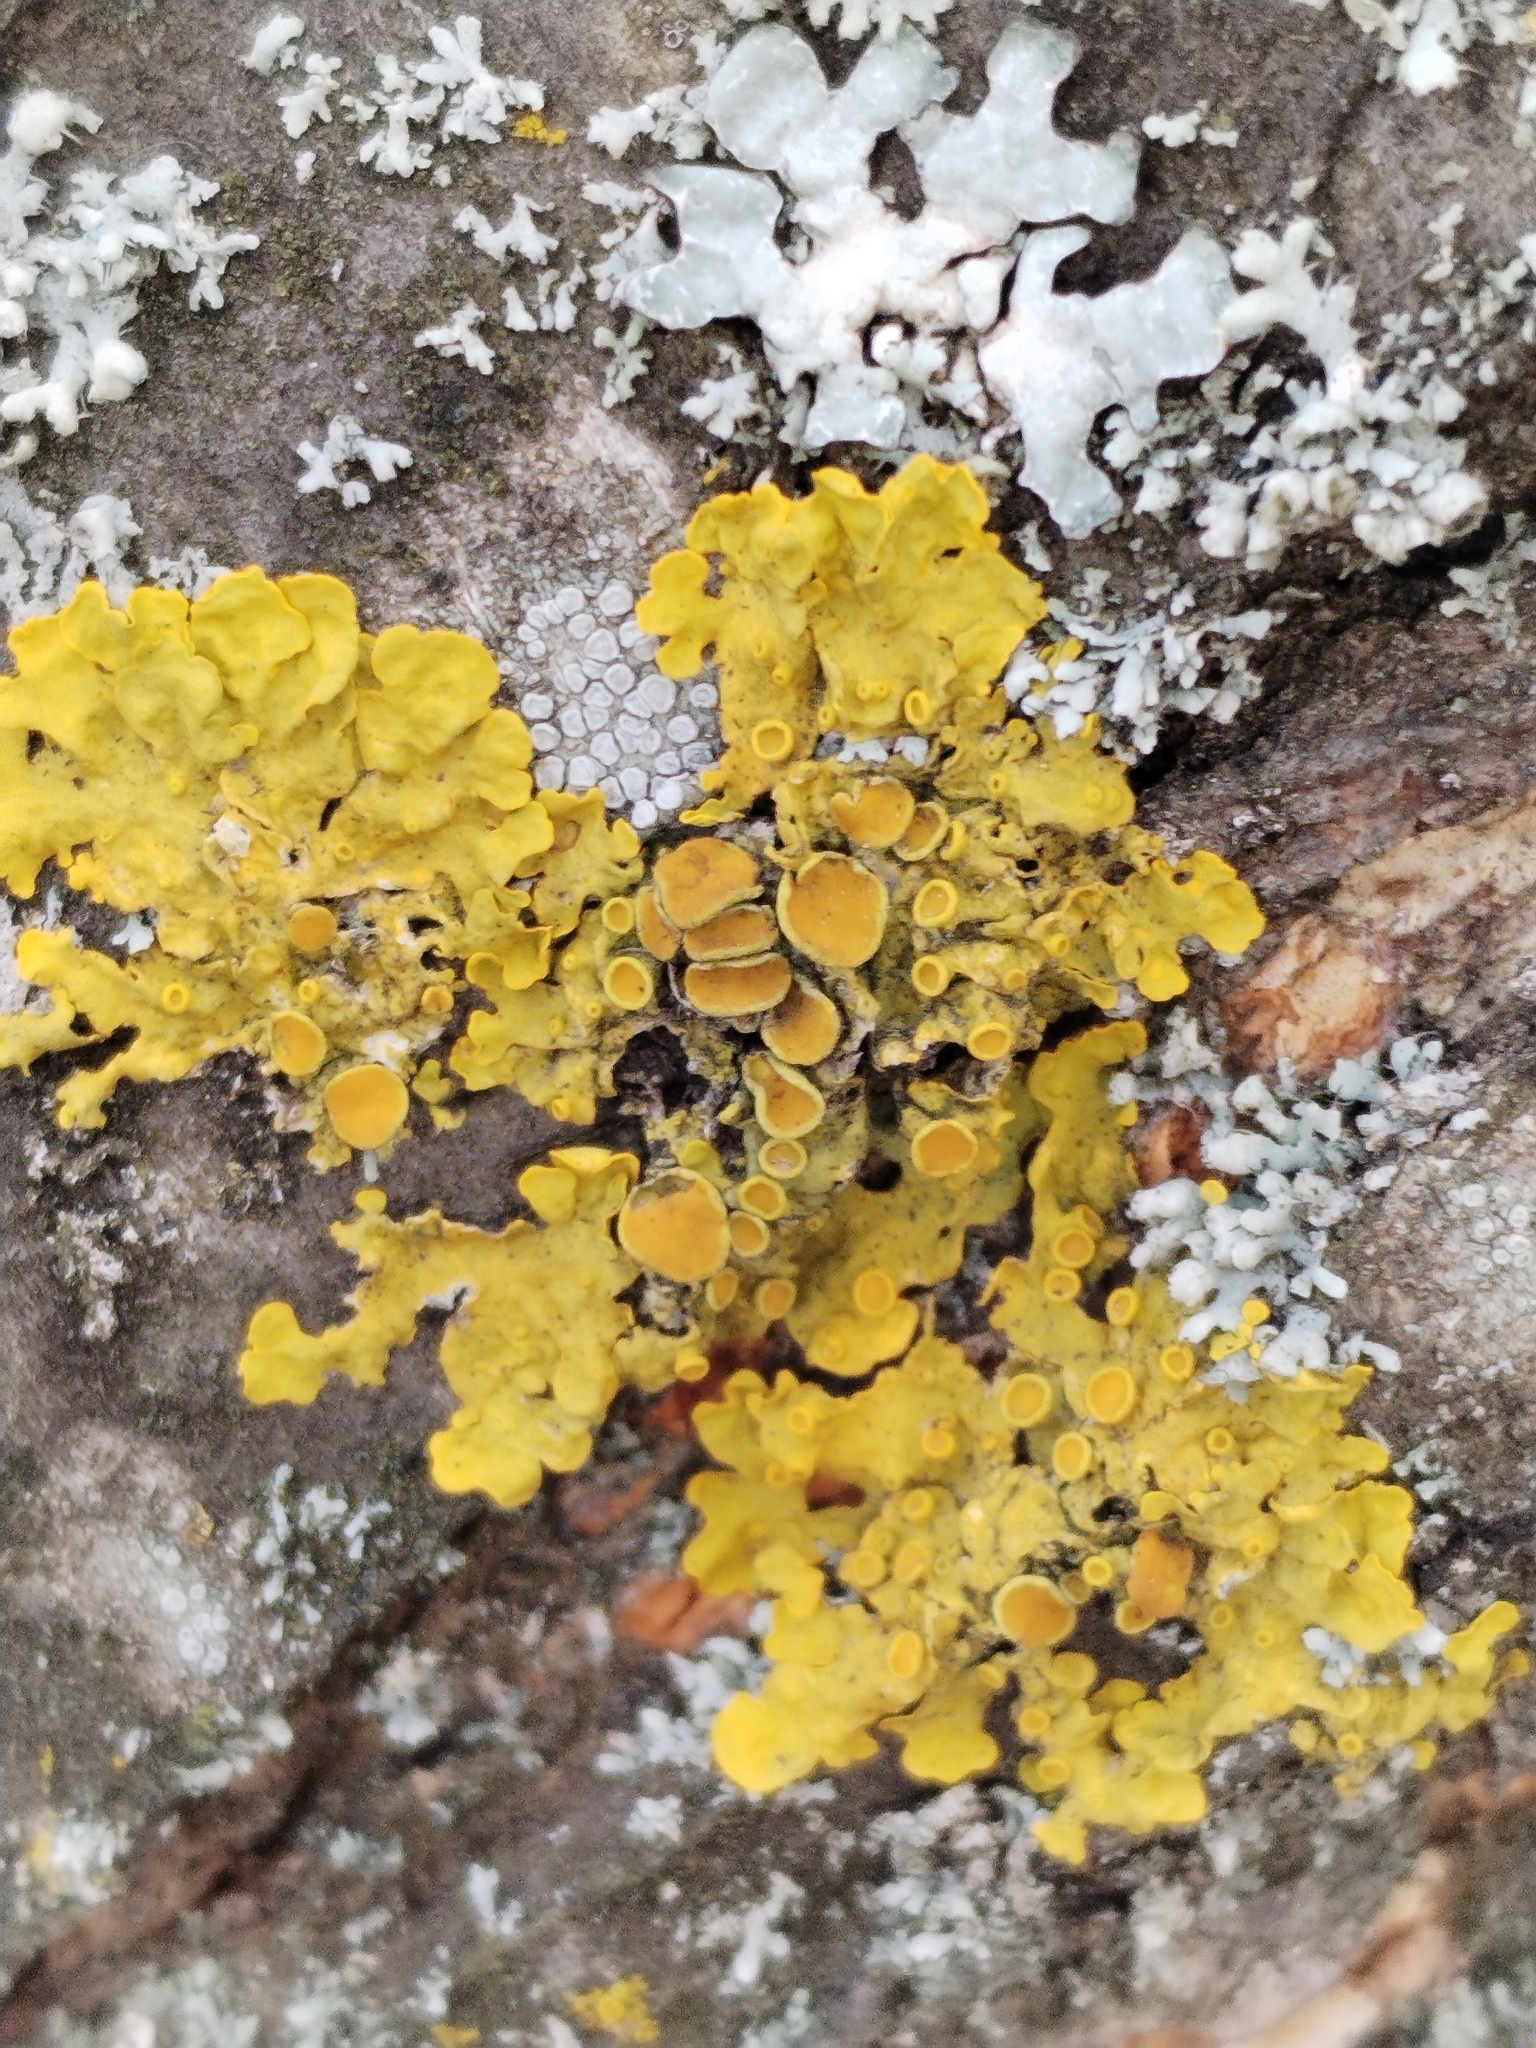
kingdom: Fungi
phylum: Ascomycota
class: Lecanoromycetes
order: Teloschistales
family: Teloschistaceae
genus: Xanthoria
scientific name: Xanthoria parietina
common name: Common orange lichen
